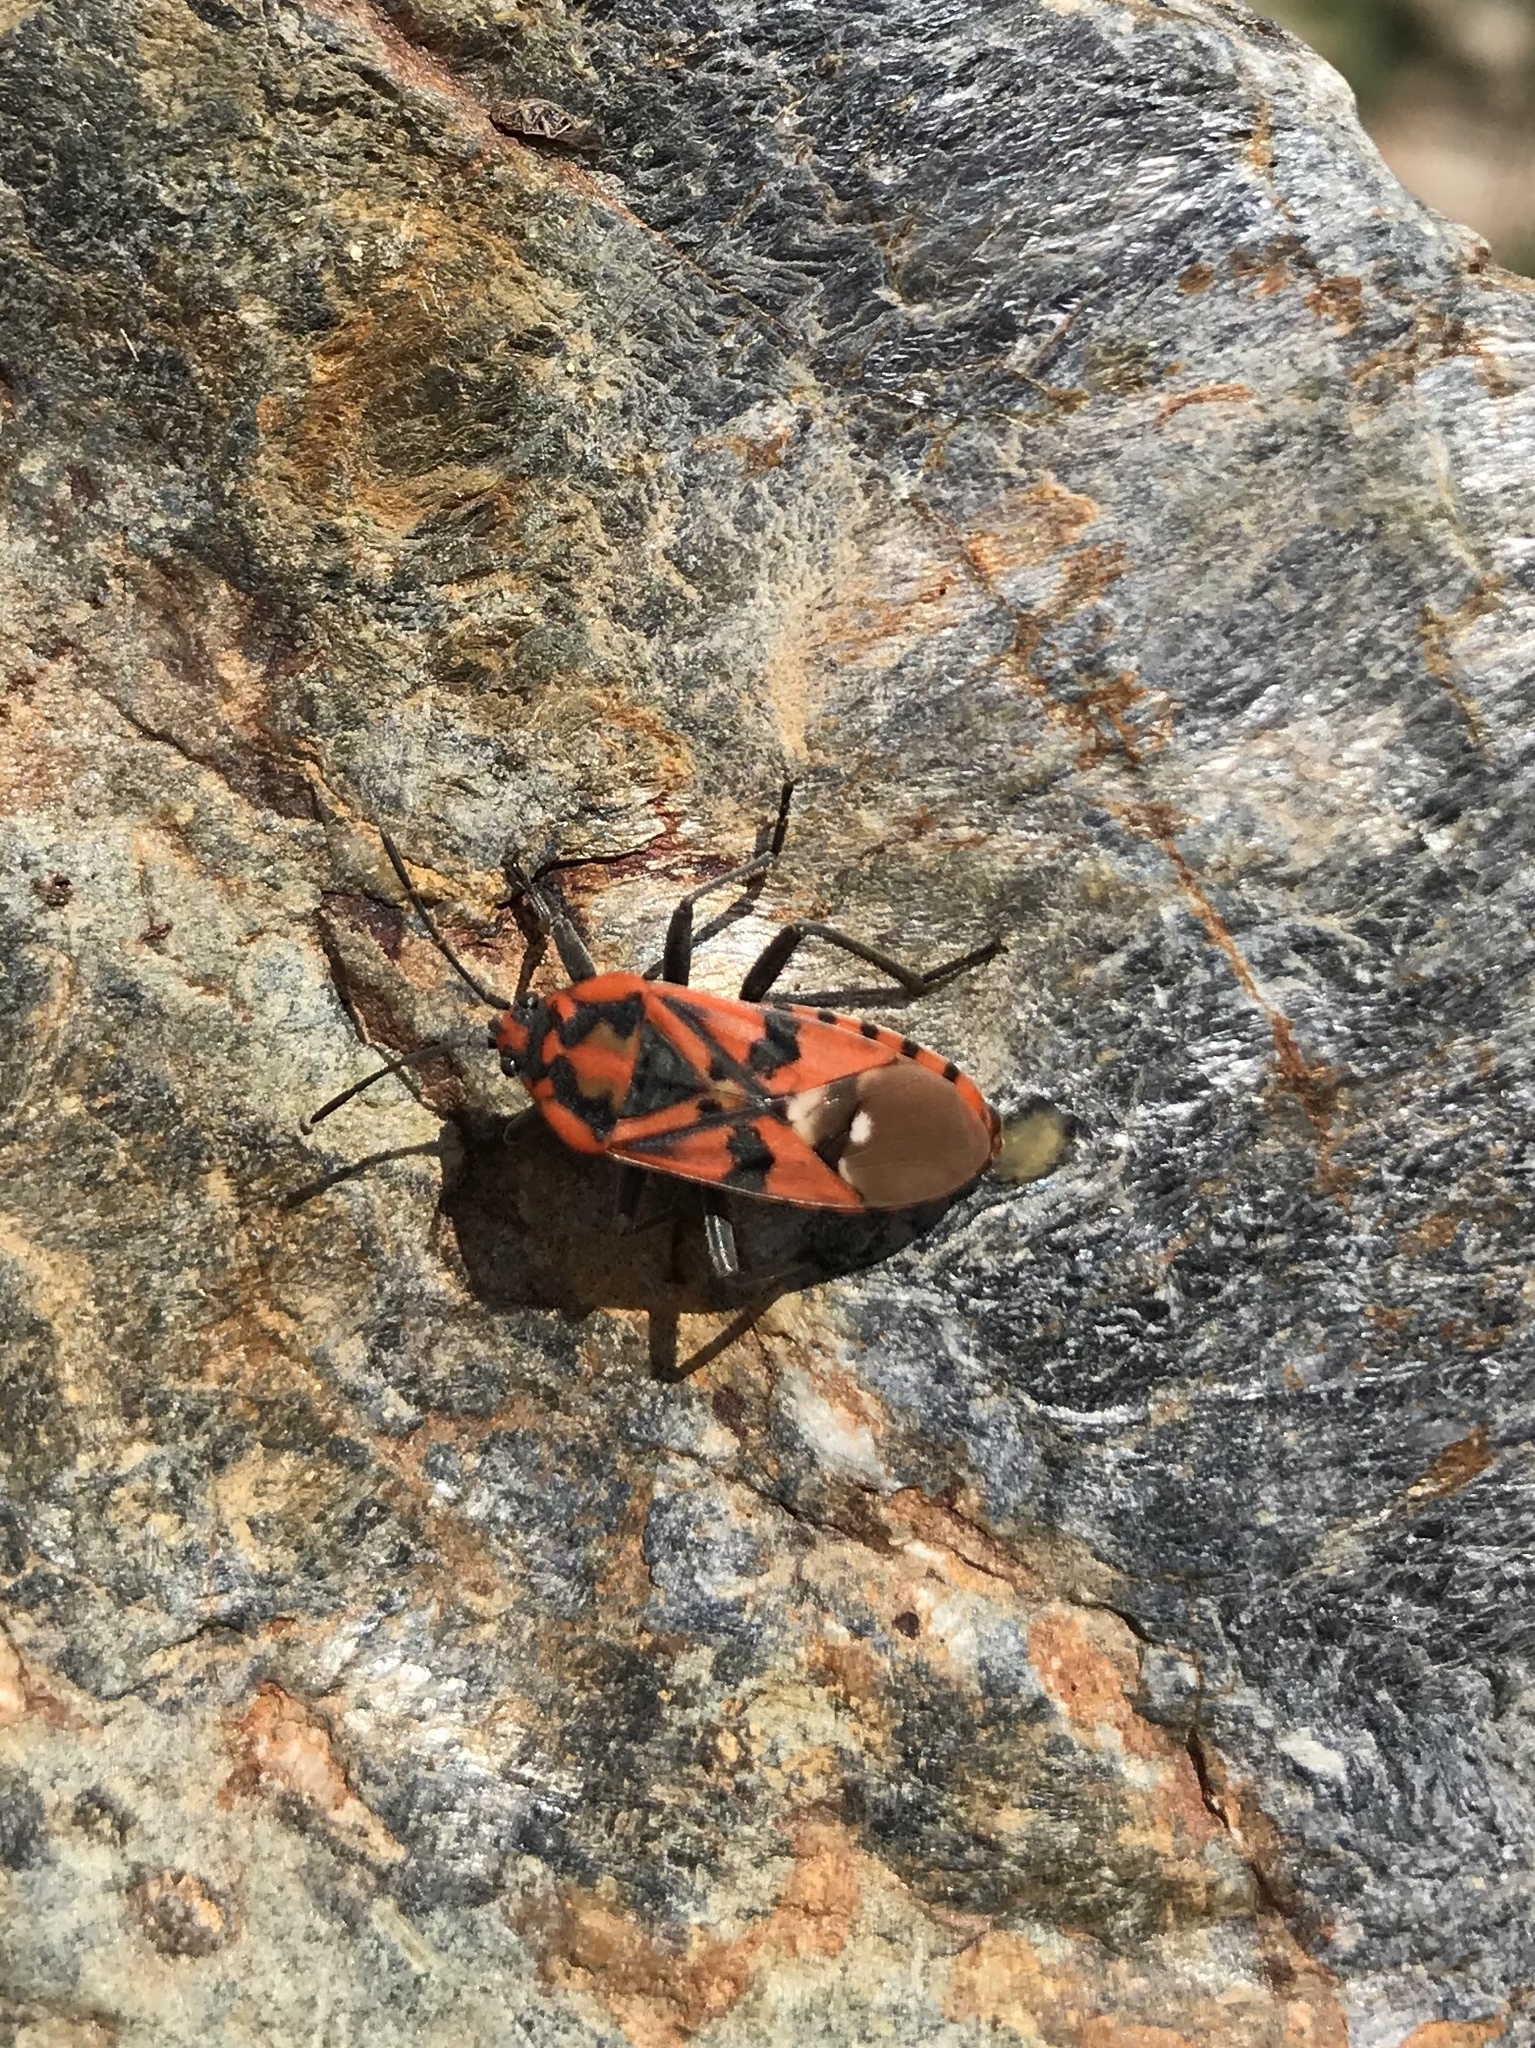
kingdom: Animalia
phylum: Arthropoda
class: Insecta
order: Hemiptera
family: Lygaeidae
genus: Spilostethus
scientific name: Spilostethus pandurus
